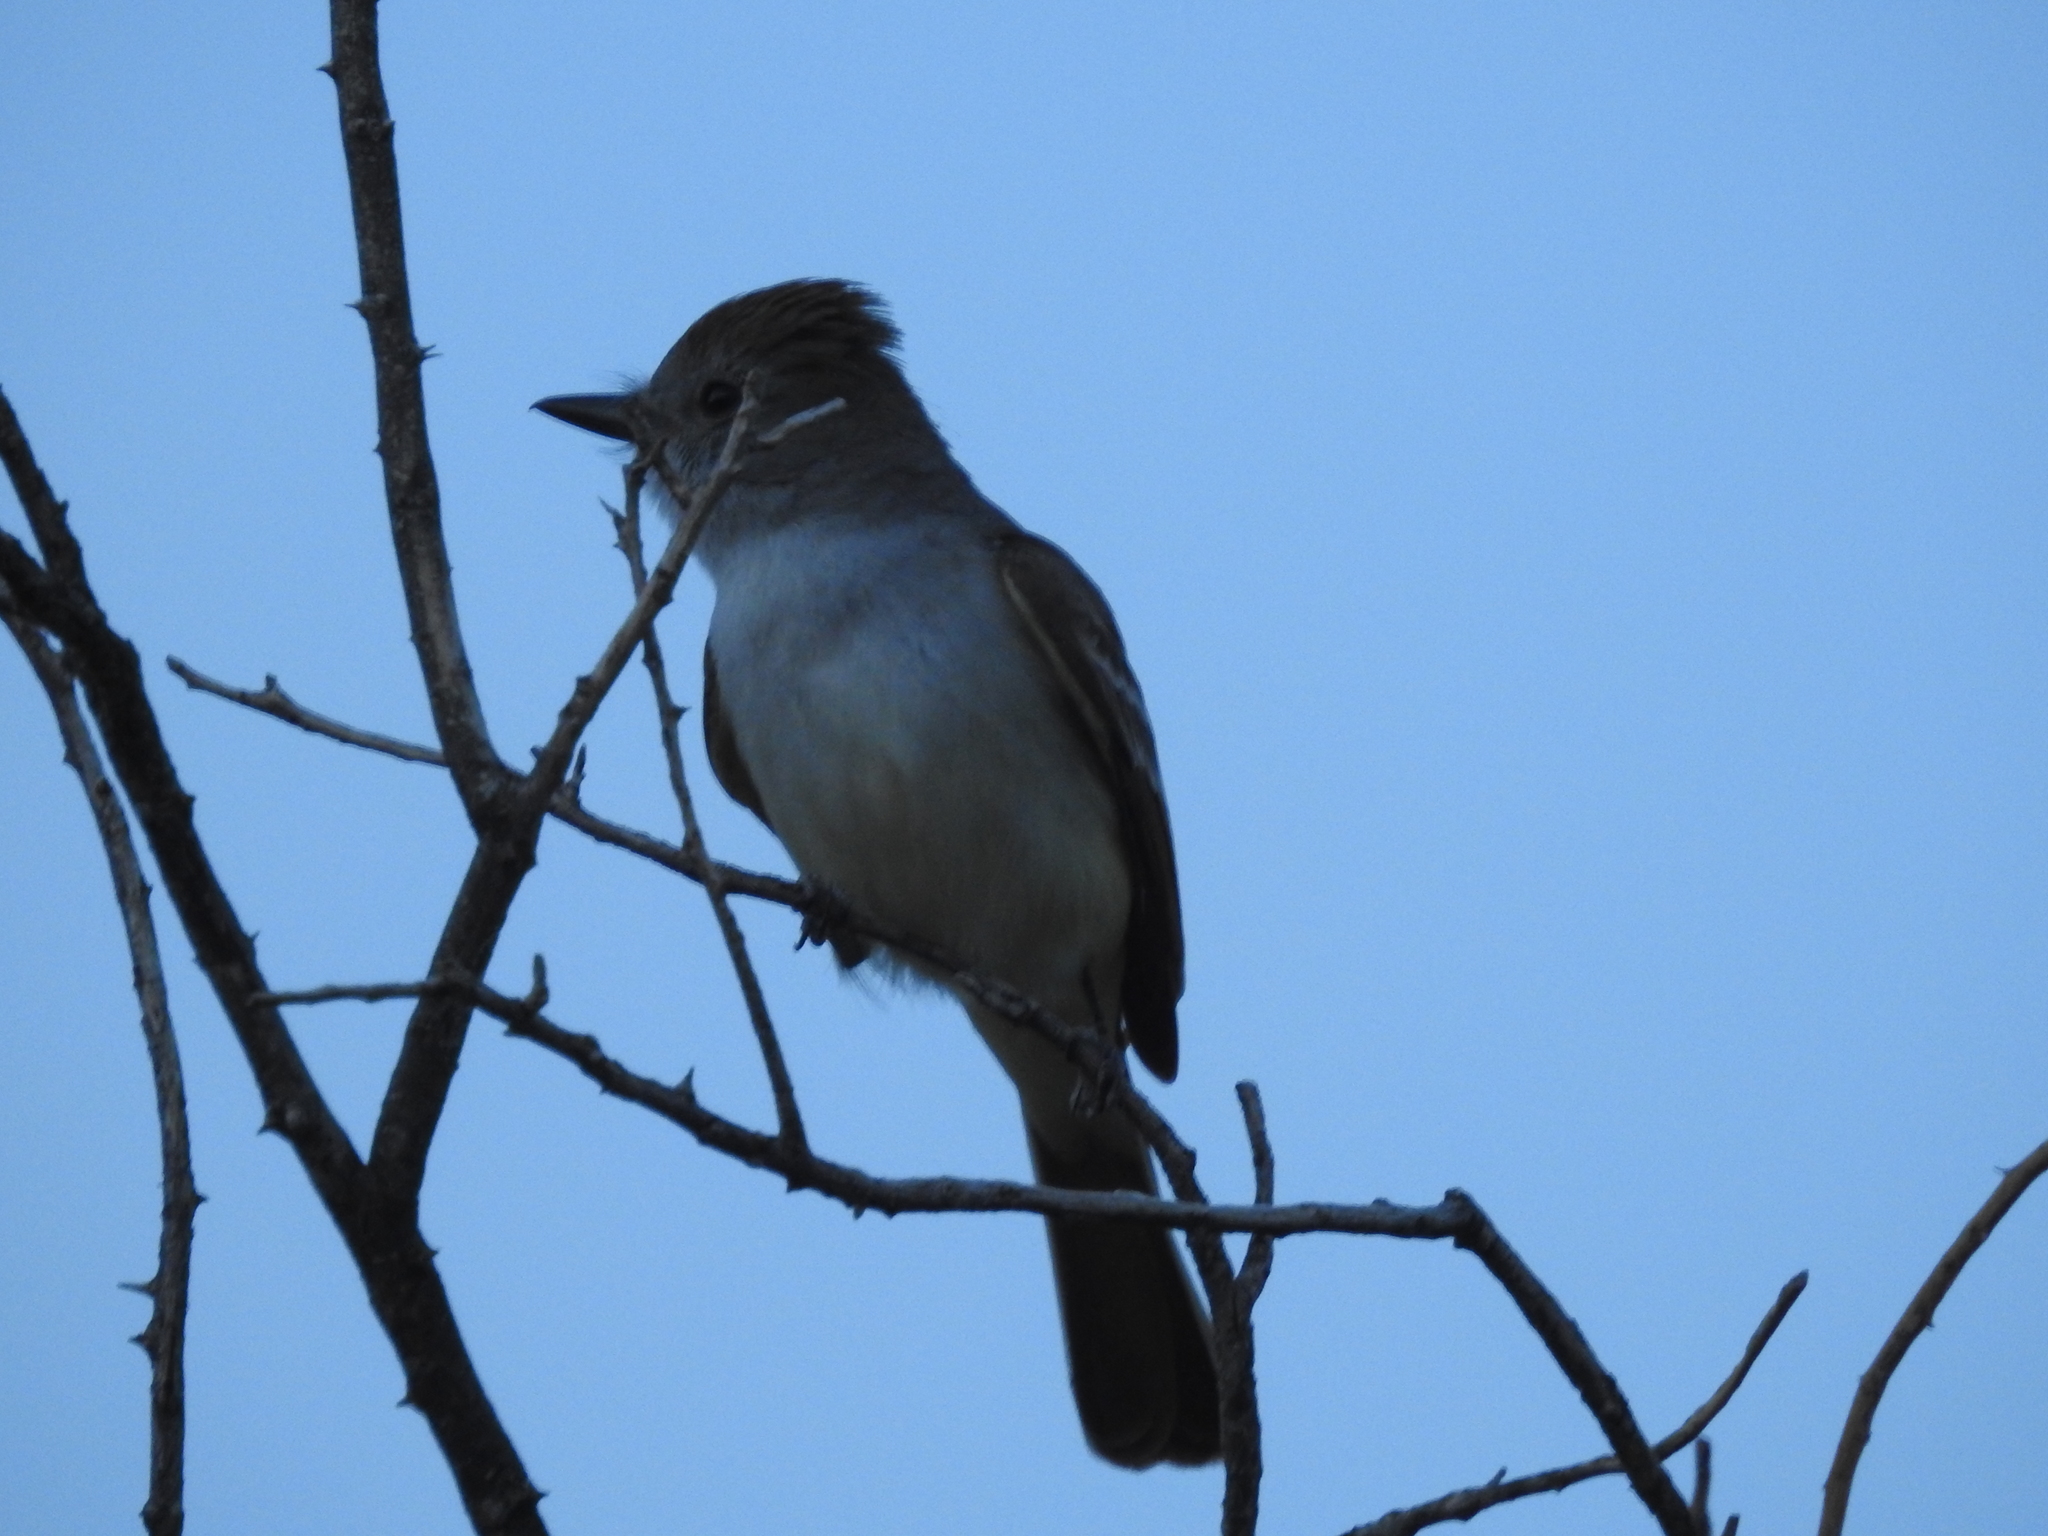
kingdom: Animalia
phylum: Chordata
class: Aves
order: Passeriformes
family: Tyrannidae
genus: Myiarchus
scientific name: Myiarchus cinerascens
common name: Ash-throated flycatcher
